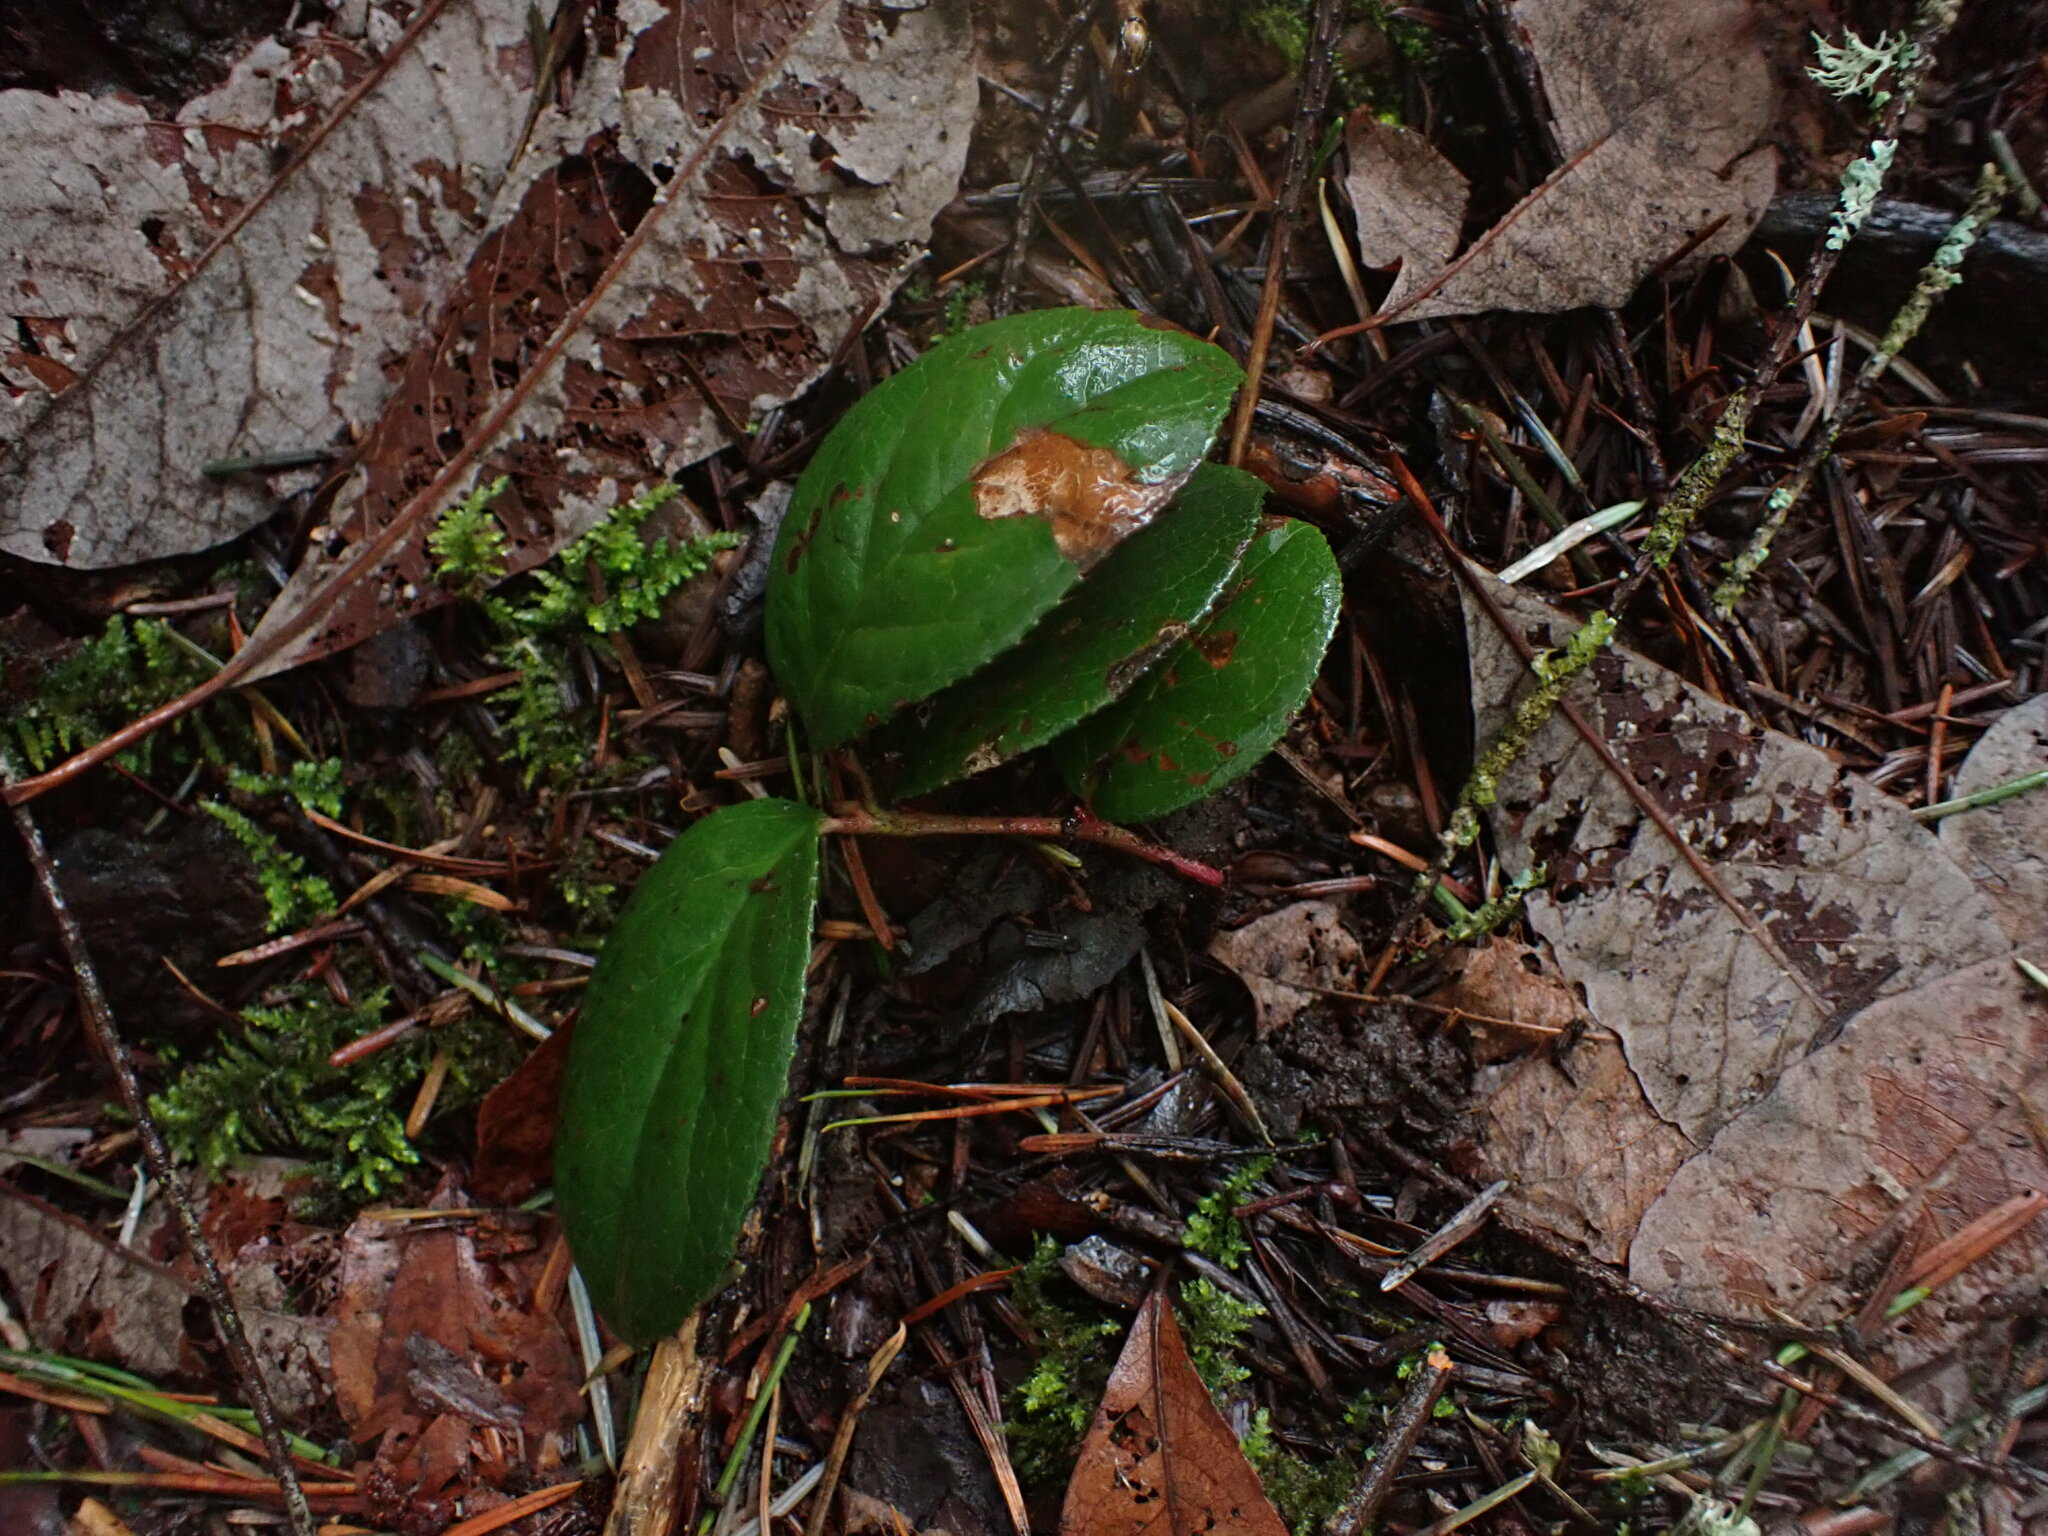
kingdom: Plantae
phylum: Tracheophyta
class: Magnoliopsida
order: Ericales
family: Ericaceae
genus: Gaultheria
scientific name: Gaultheria shallon
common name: Shallon
